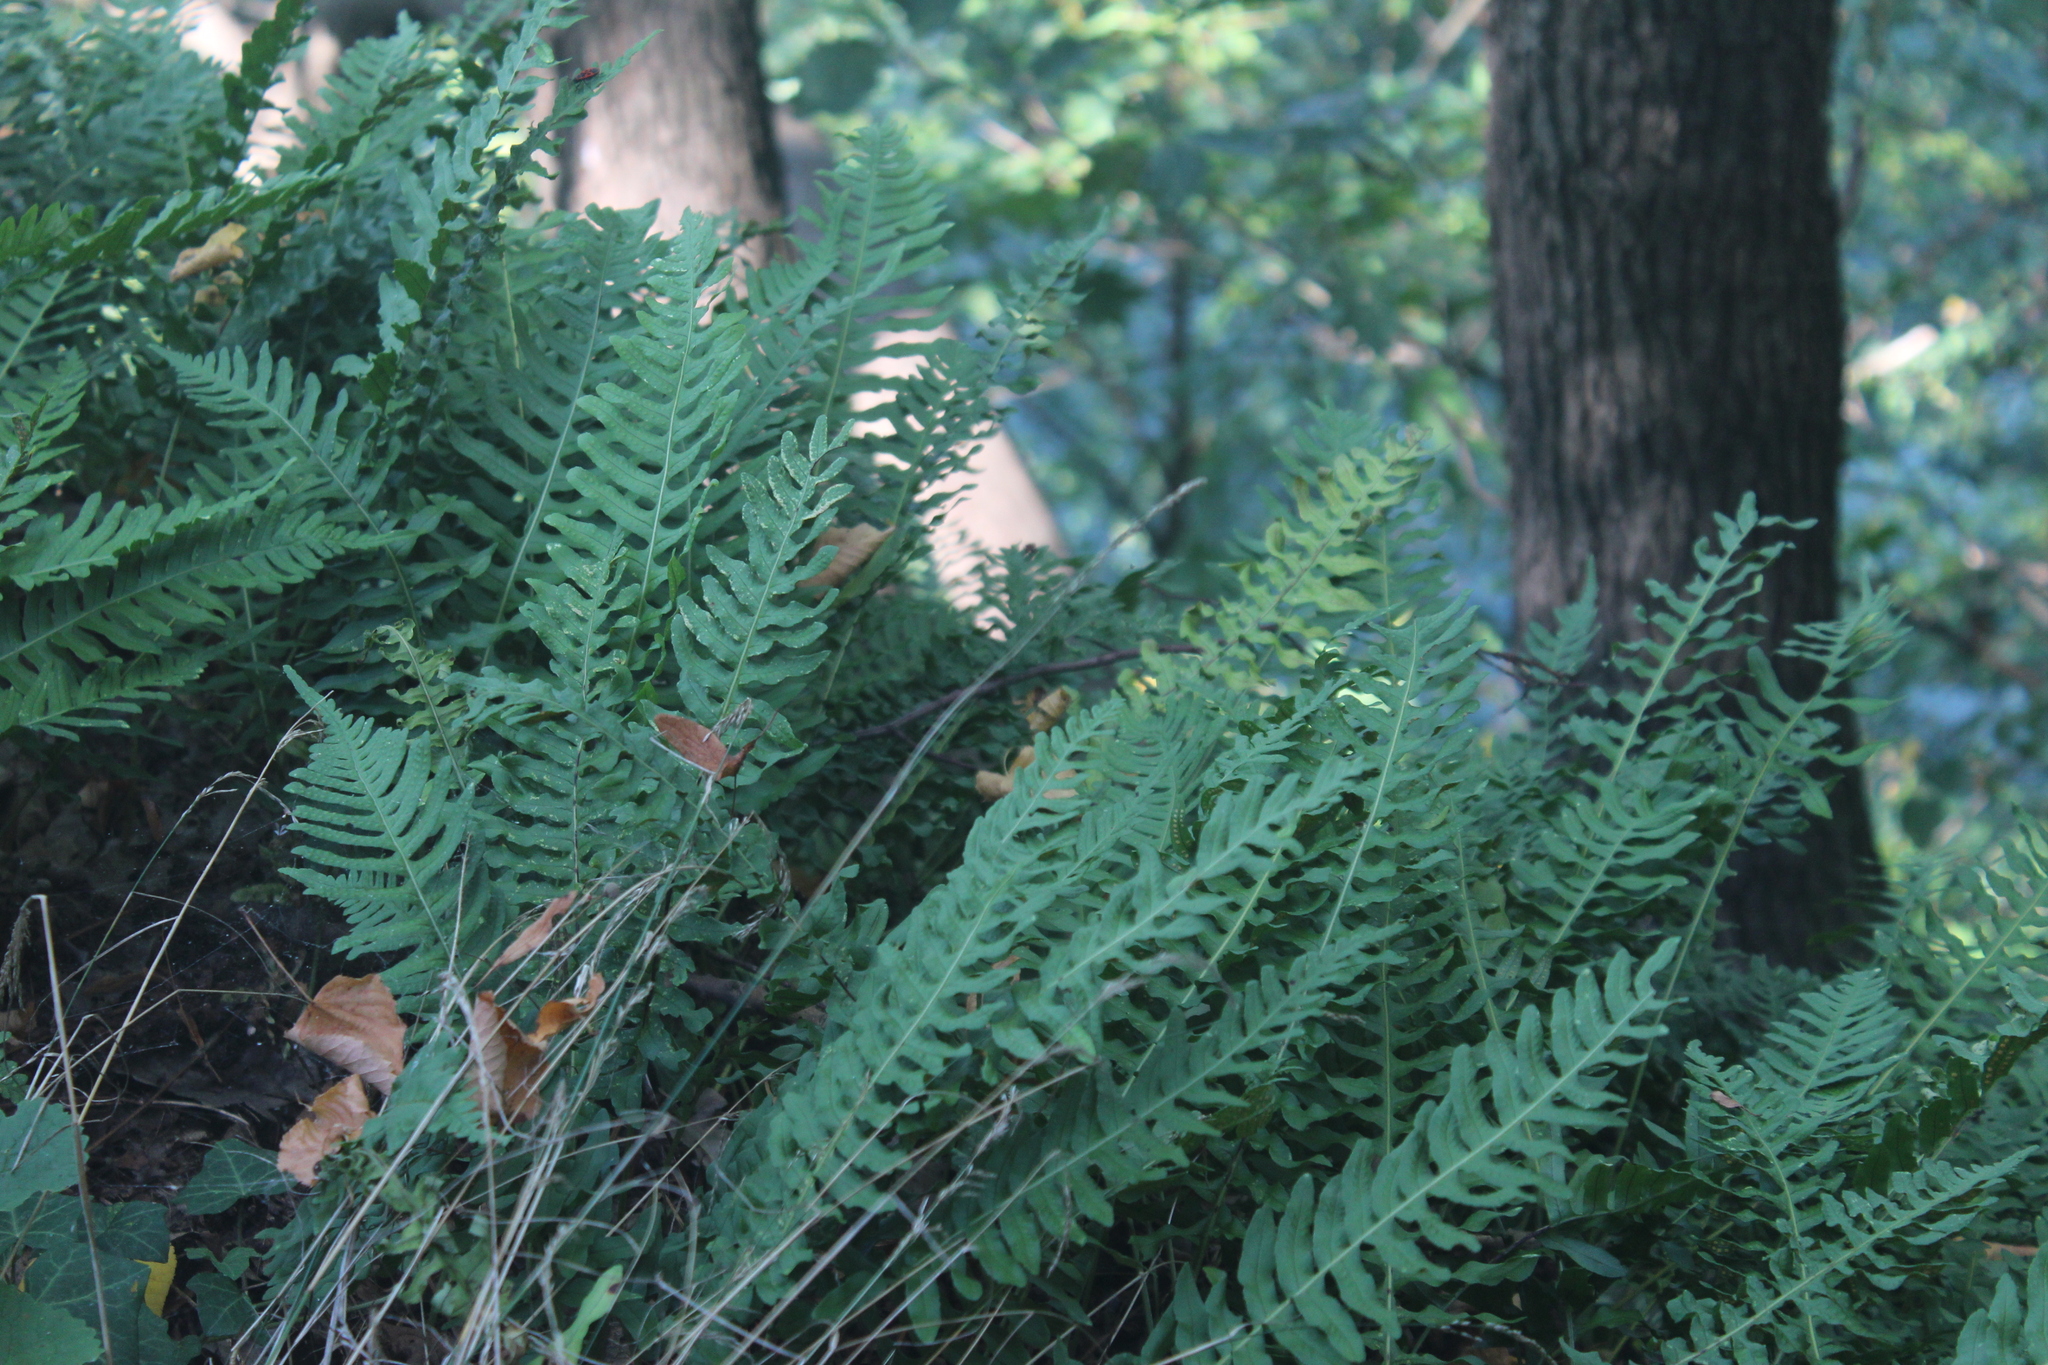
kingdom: Plantae
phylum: Tracheophyta
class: Polypodiopsida
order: Polypodiales
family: Polypodiaceae
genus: Polypodium
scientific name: Polypodium vulgare
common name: Common polypody
